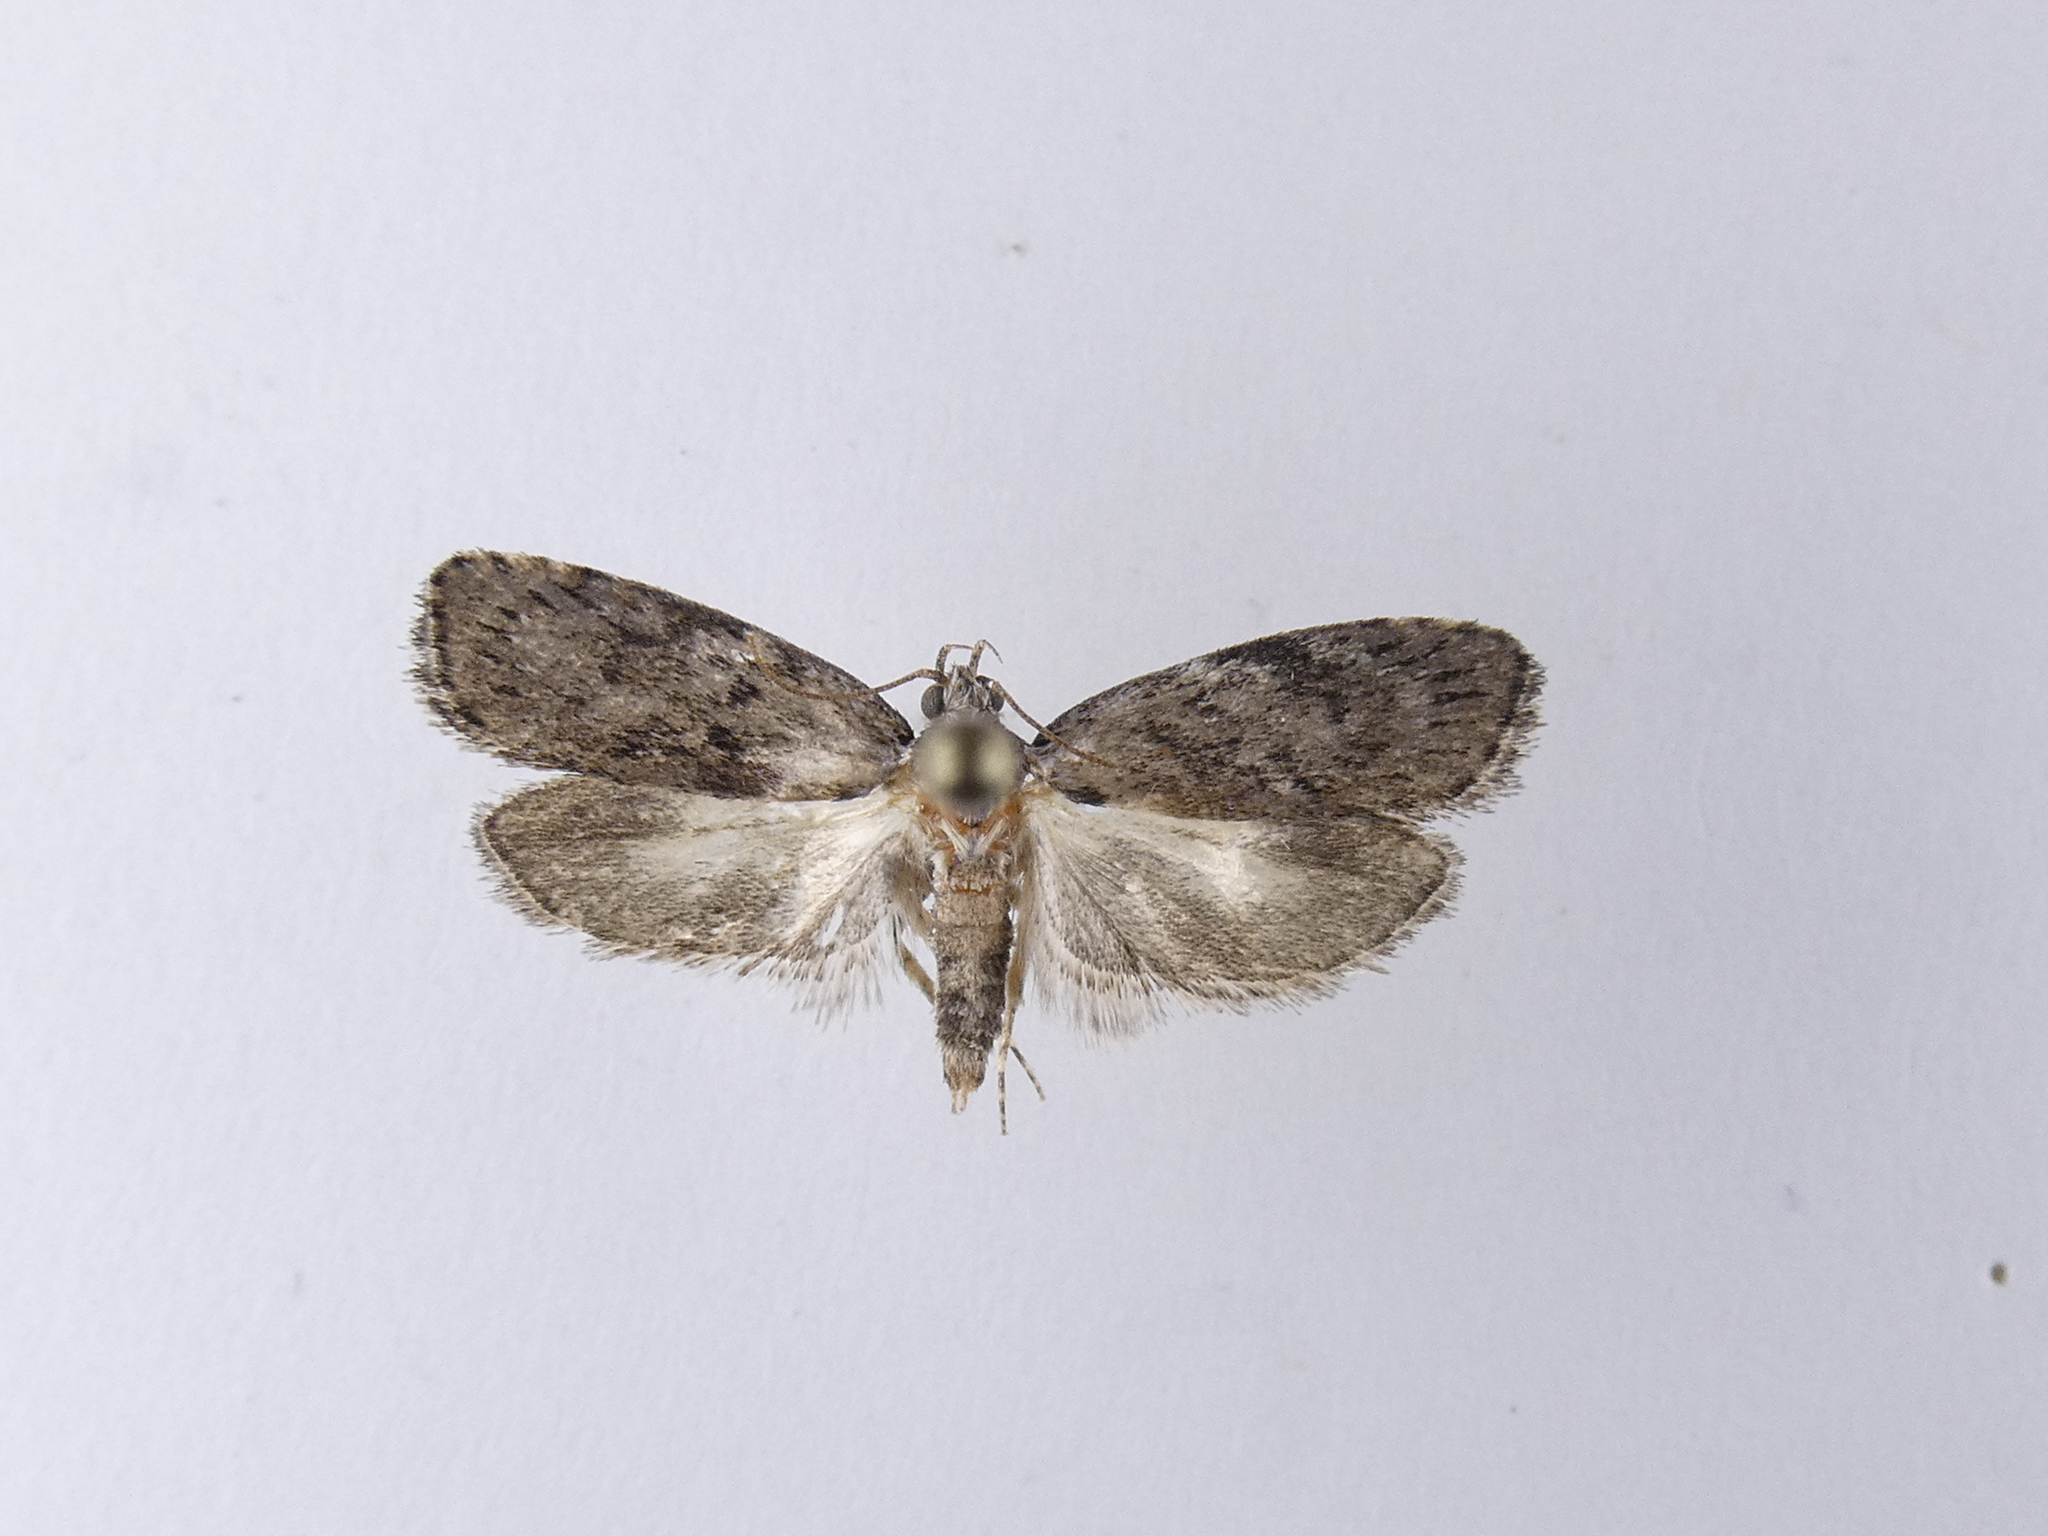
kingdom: Animalia
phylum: Arthropoda
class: Insecta
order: Lepidoptera
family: Depressariidae
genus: Phaeosaces
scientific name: Phaeosaces compsotypa
